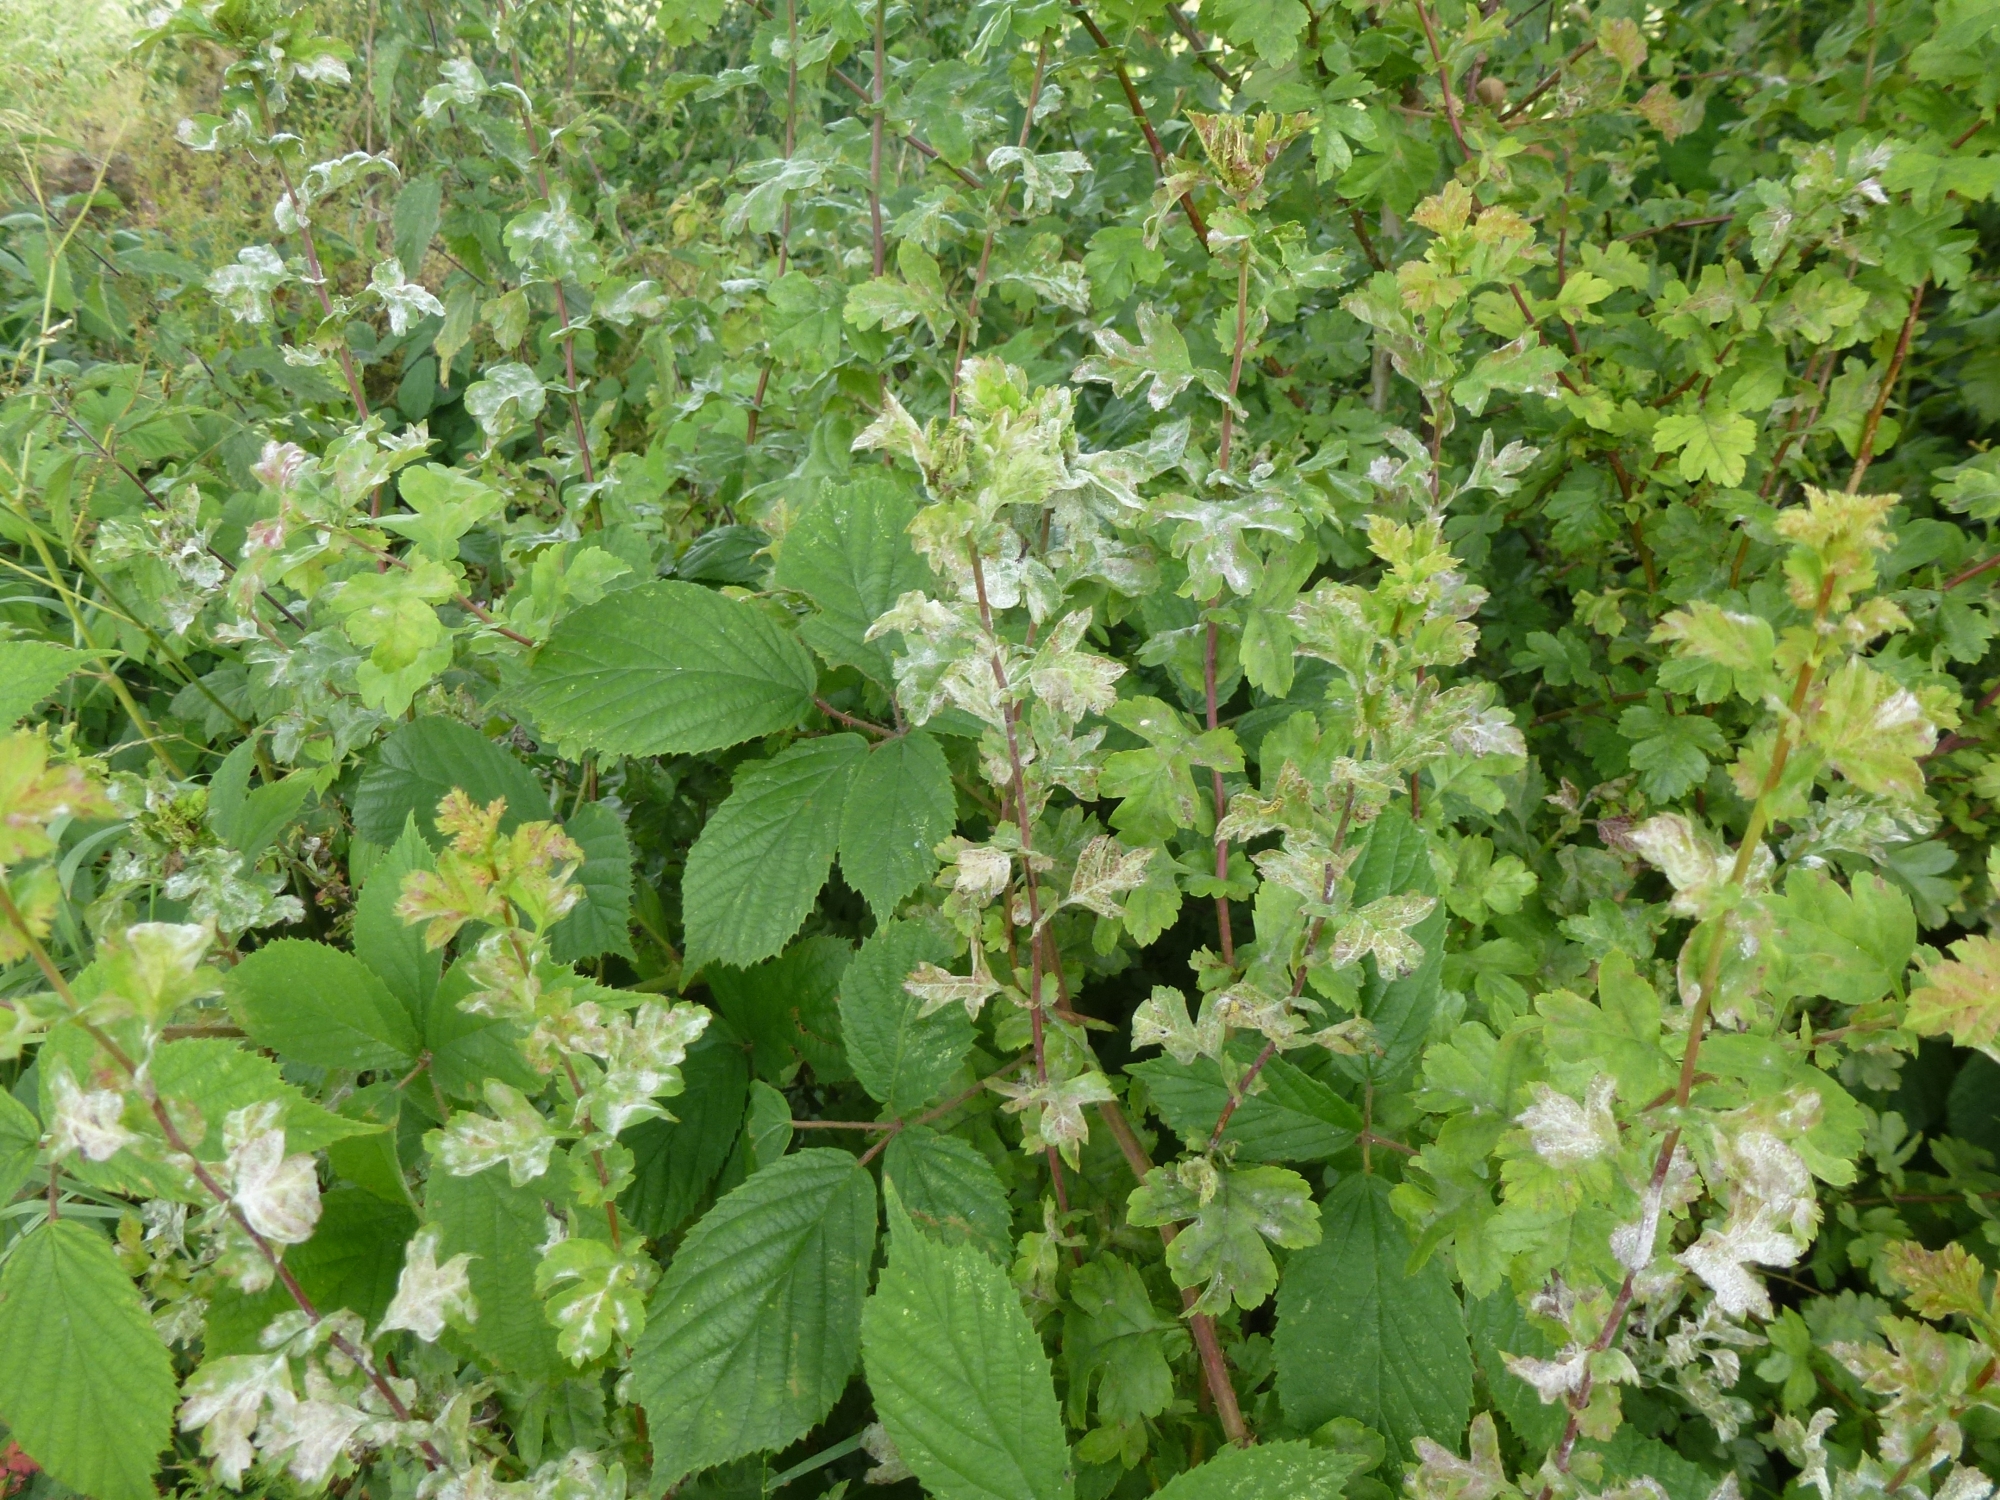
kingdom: Fungi
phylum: Ascomycota
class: Leotiomycetes
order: Helotiales
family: Erysiphaceae
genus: Podosphaera
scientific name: Podosphaera clandestina
